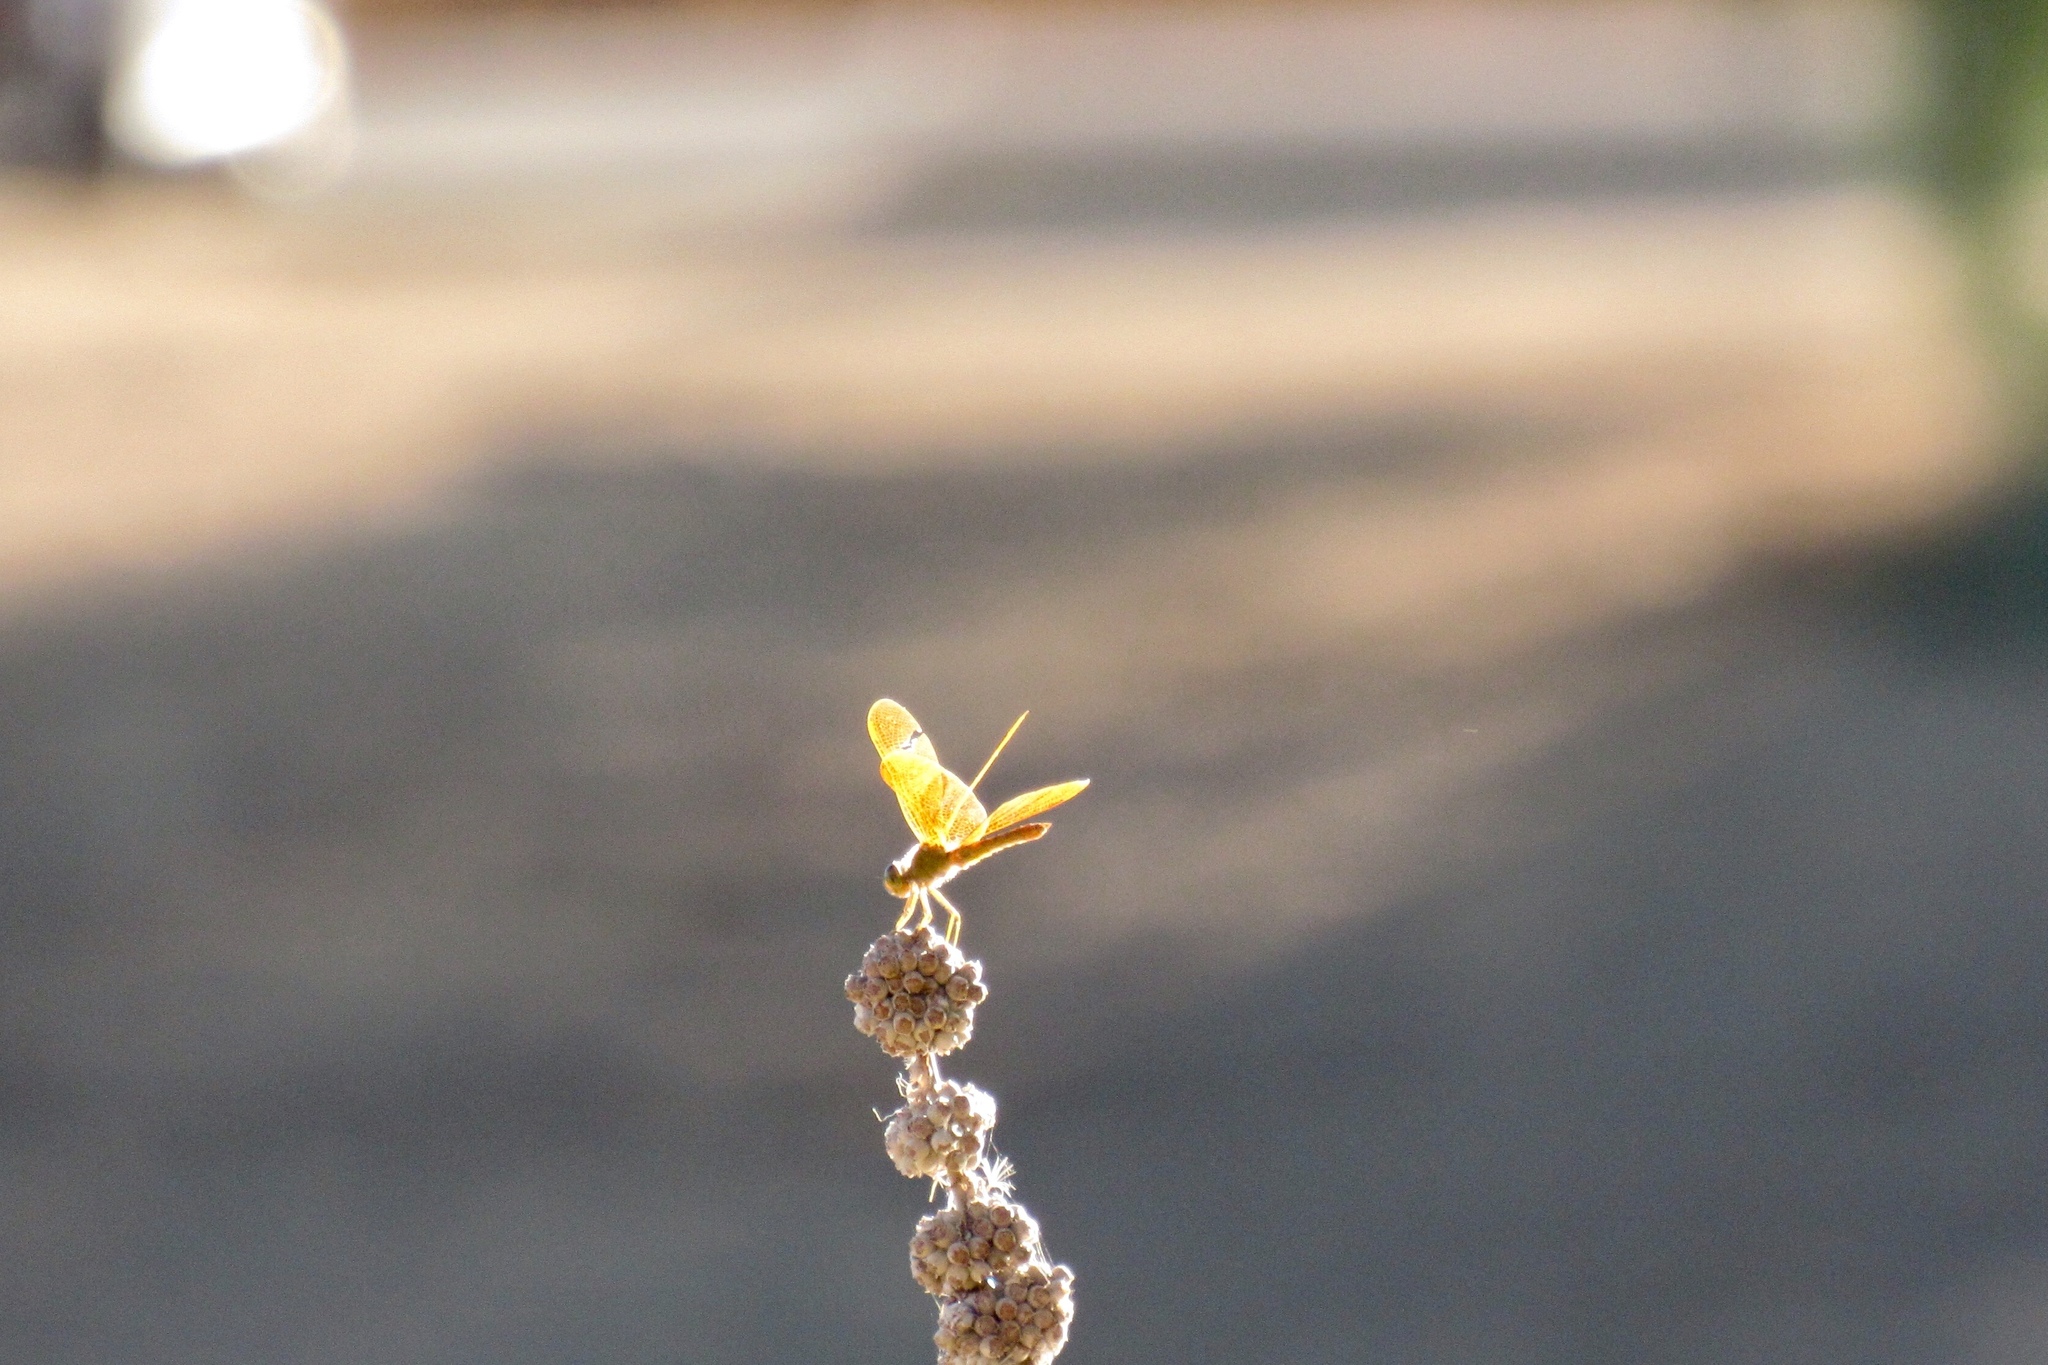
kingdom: Animalia
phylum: Arthropoda
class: Insecta
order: Odonata
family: Libellulidae
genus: Perithemis
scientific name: Perithemis intensa
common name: Mexican amberwing
